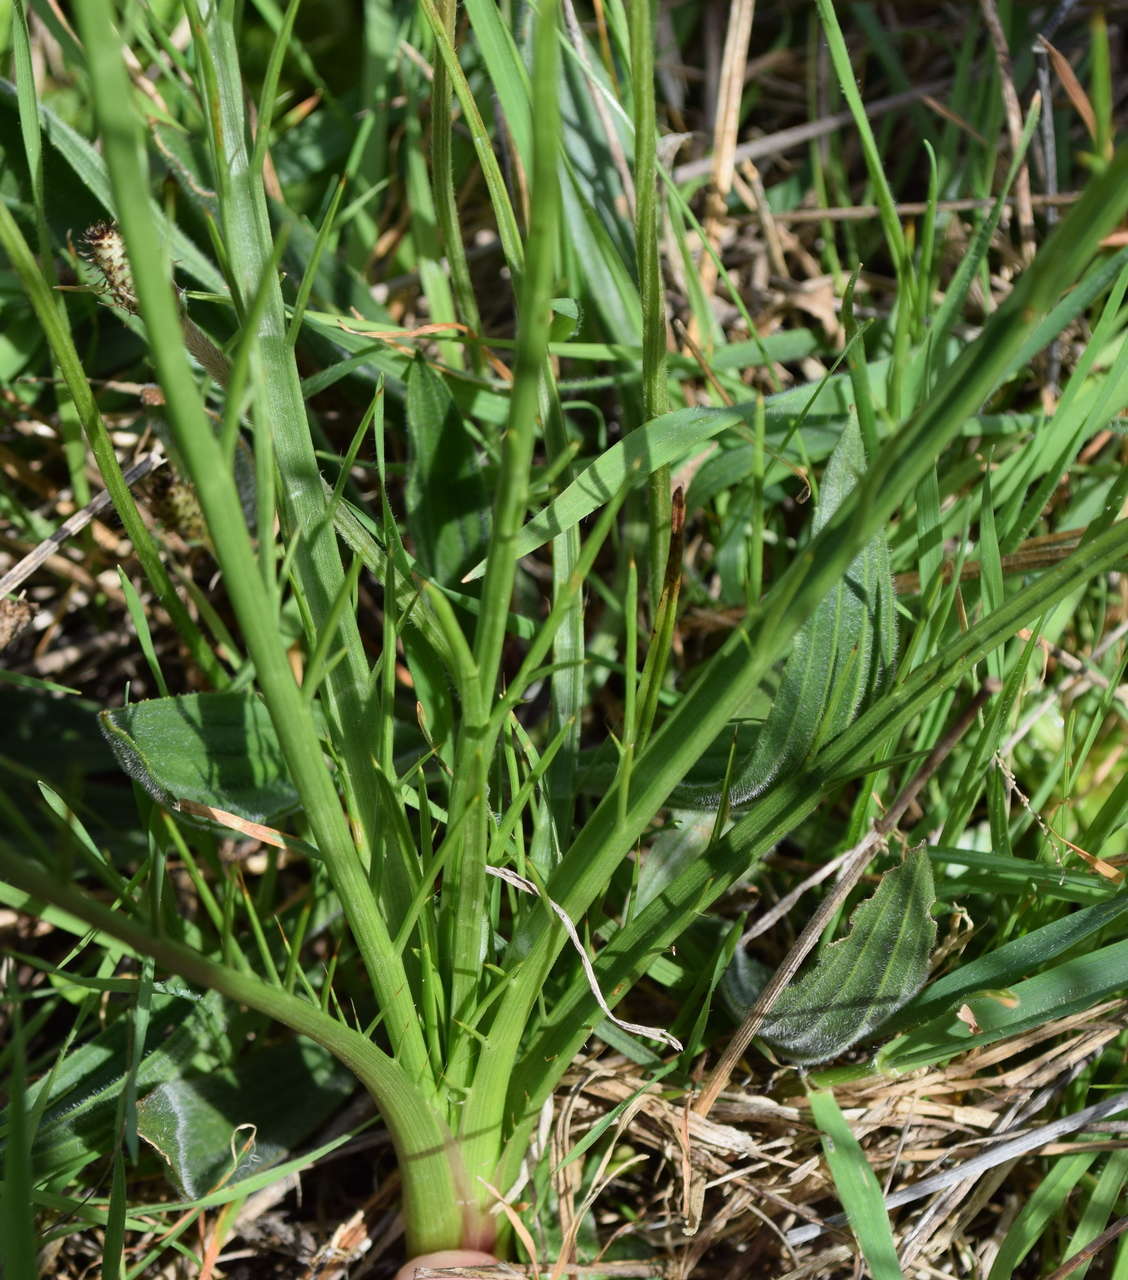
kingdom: Plantae
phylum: Tracheophyta
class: Magnoliopsida
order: Apiales
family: Apiaceae
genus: Eryngium
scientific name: Eryngium ovinum
